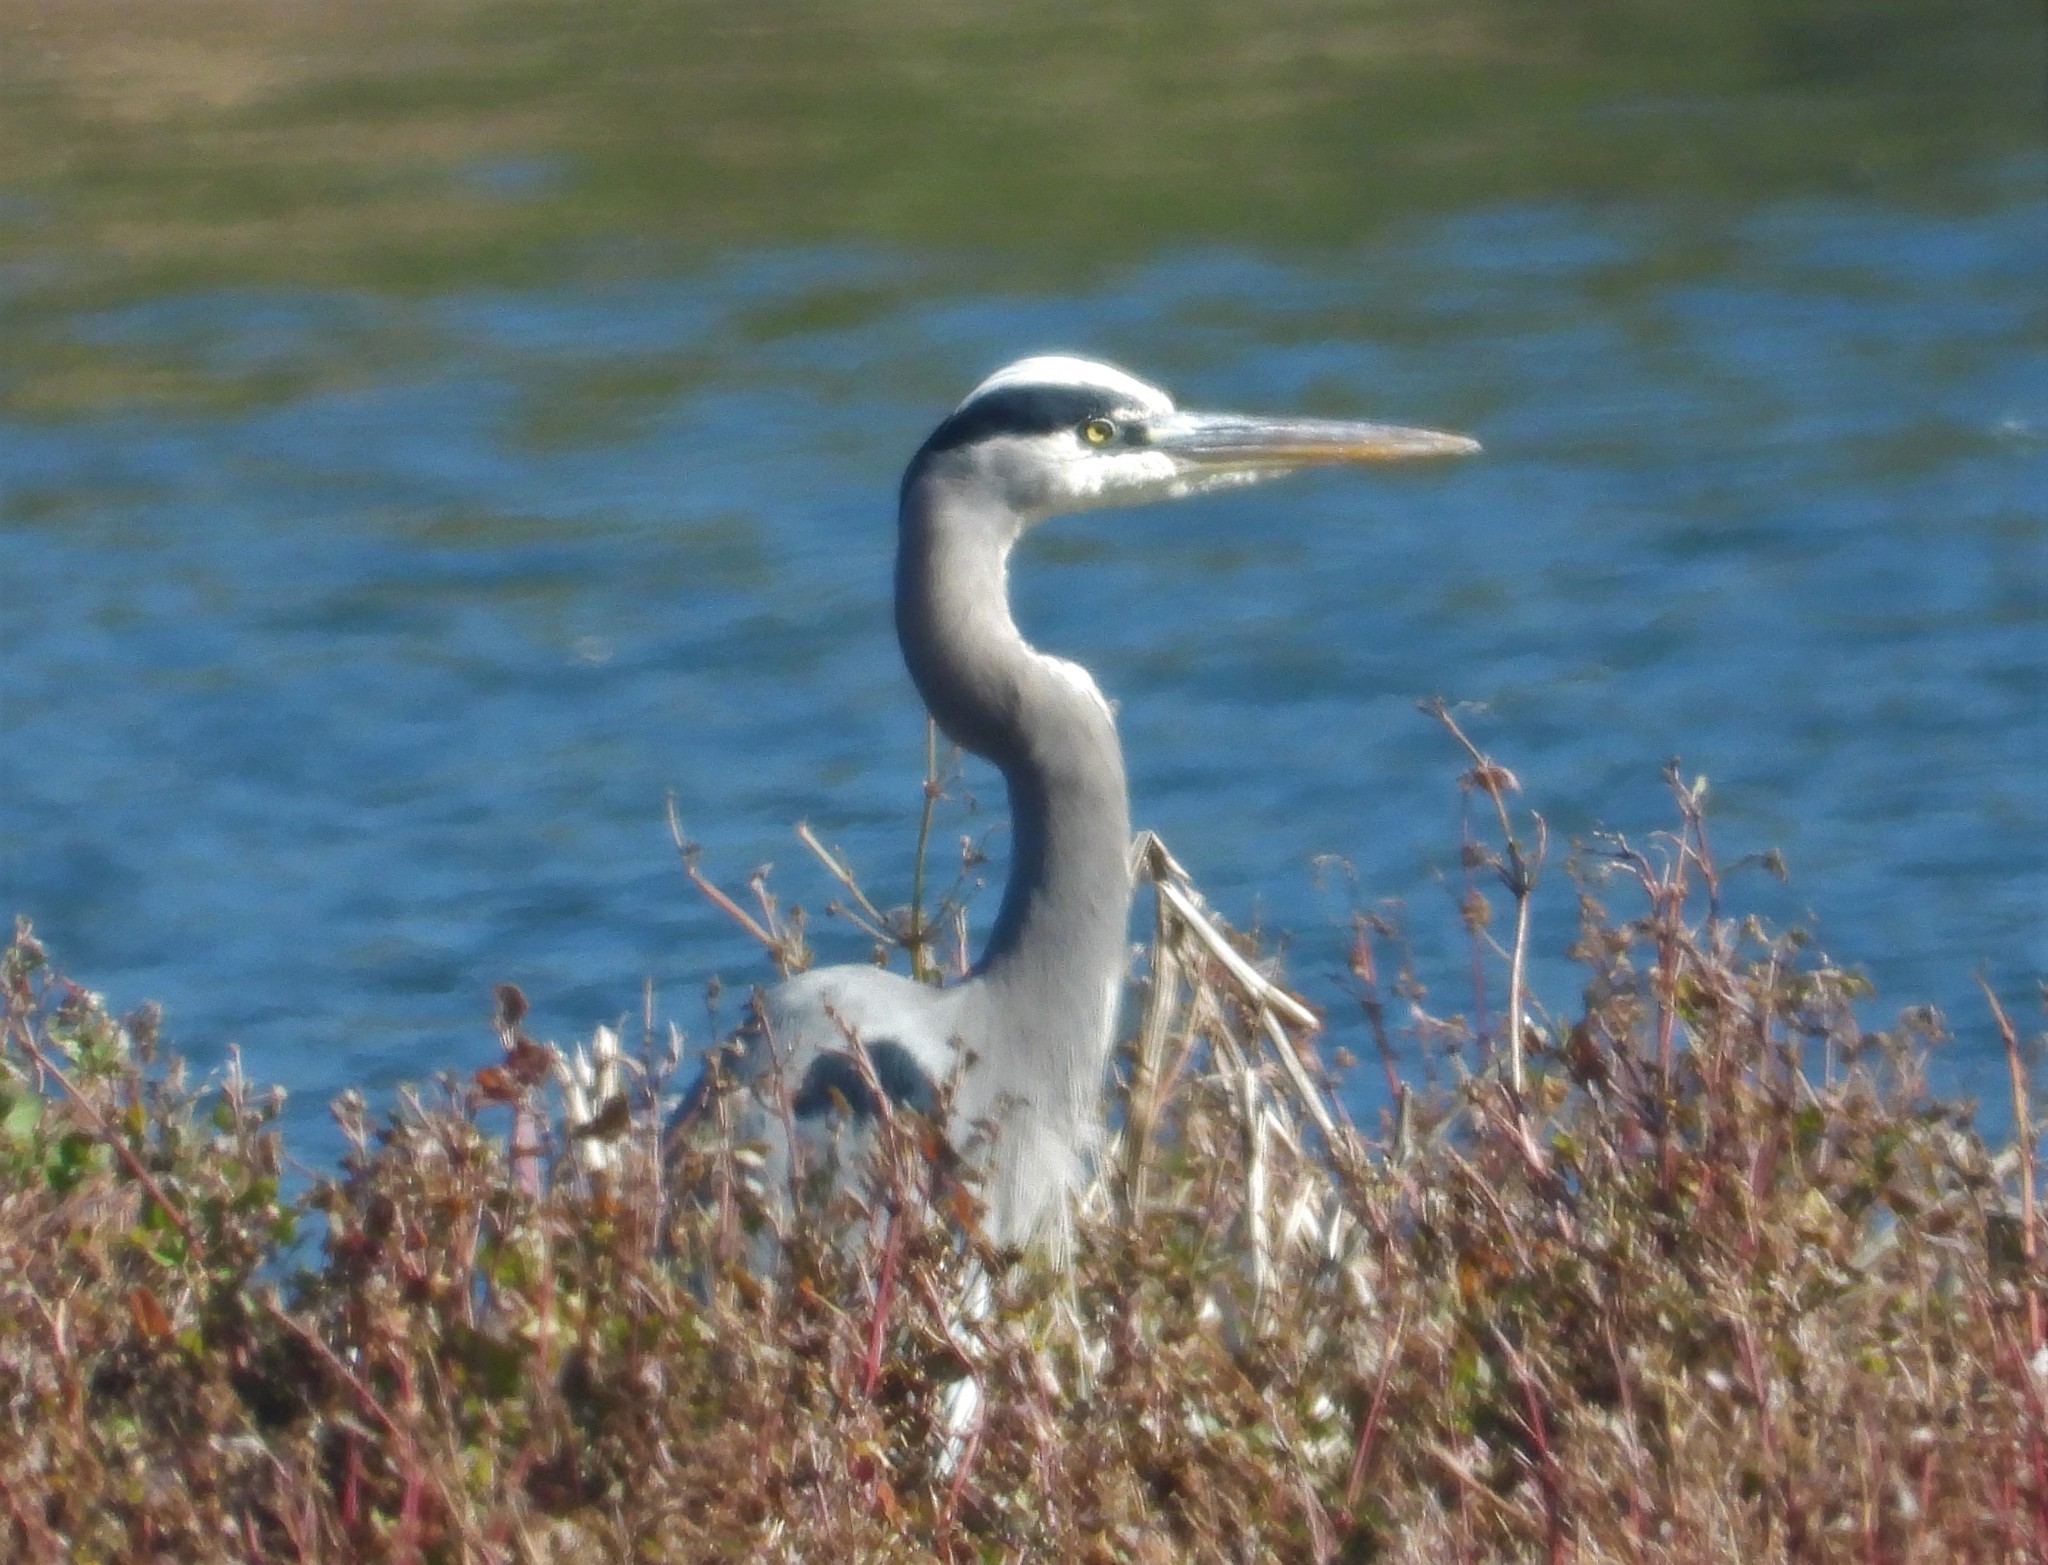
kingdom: Animalia
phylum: Chordata
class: Aves
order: Pelecaniformes
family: Ardeidae
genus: Ardea
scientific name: Ardea herodias
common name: Great blue heron
